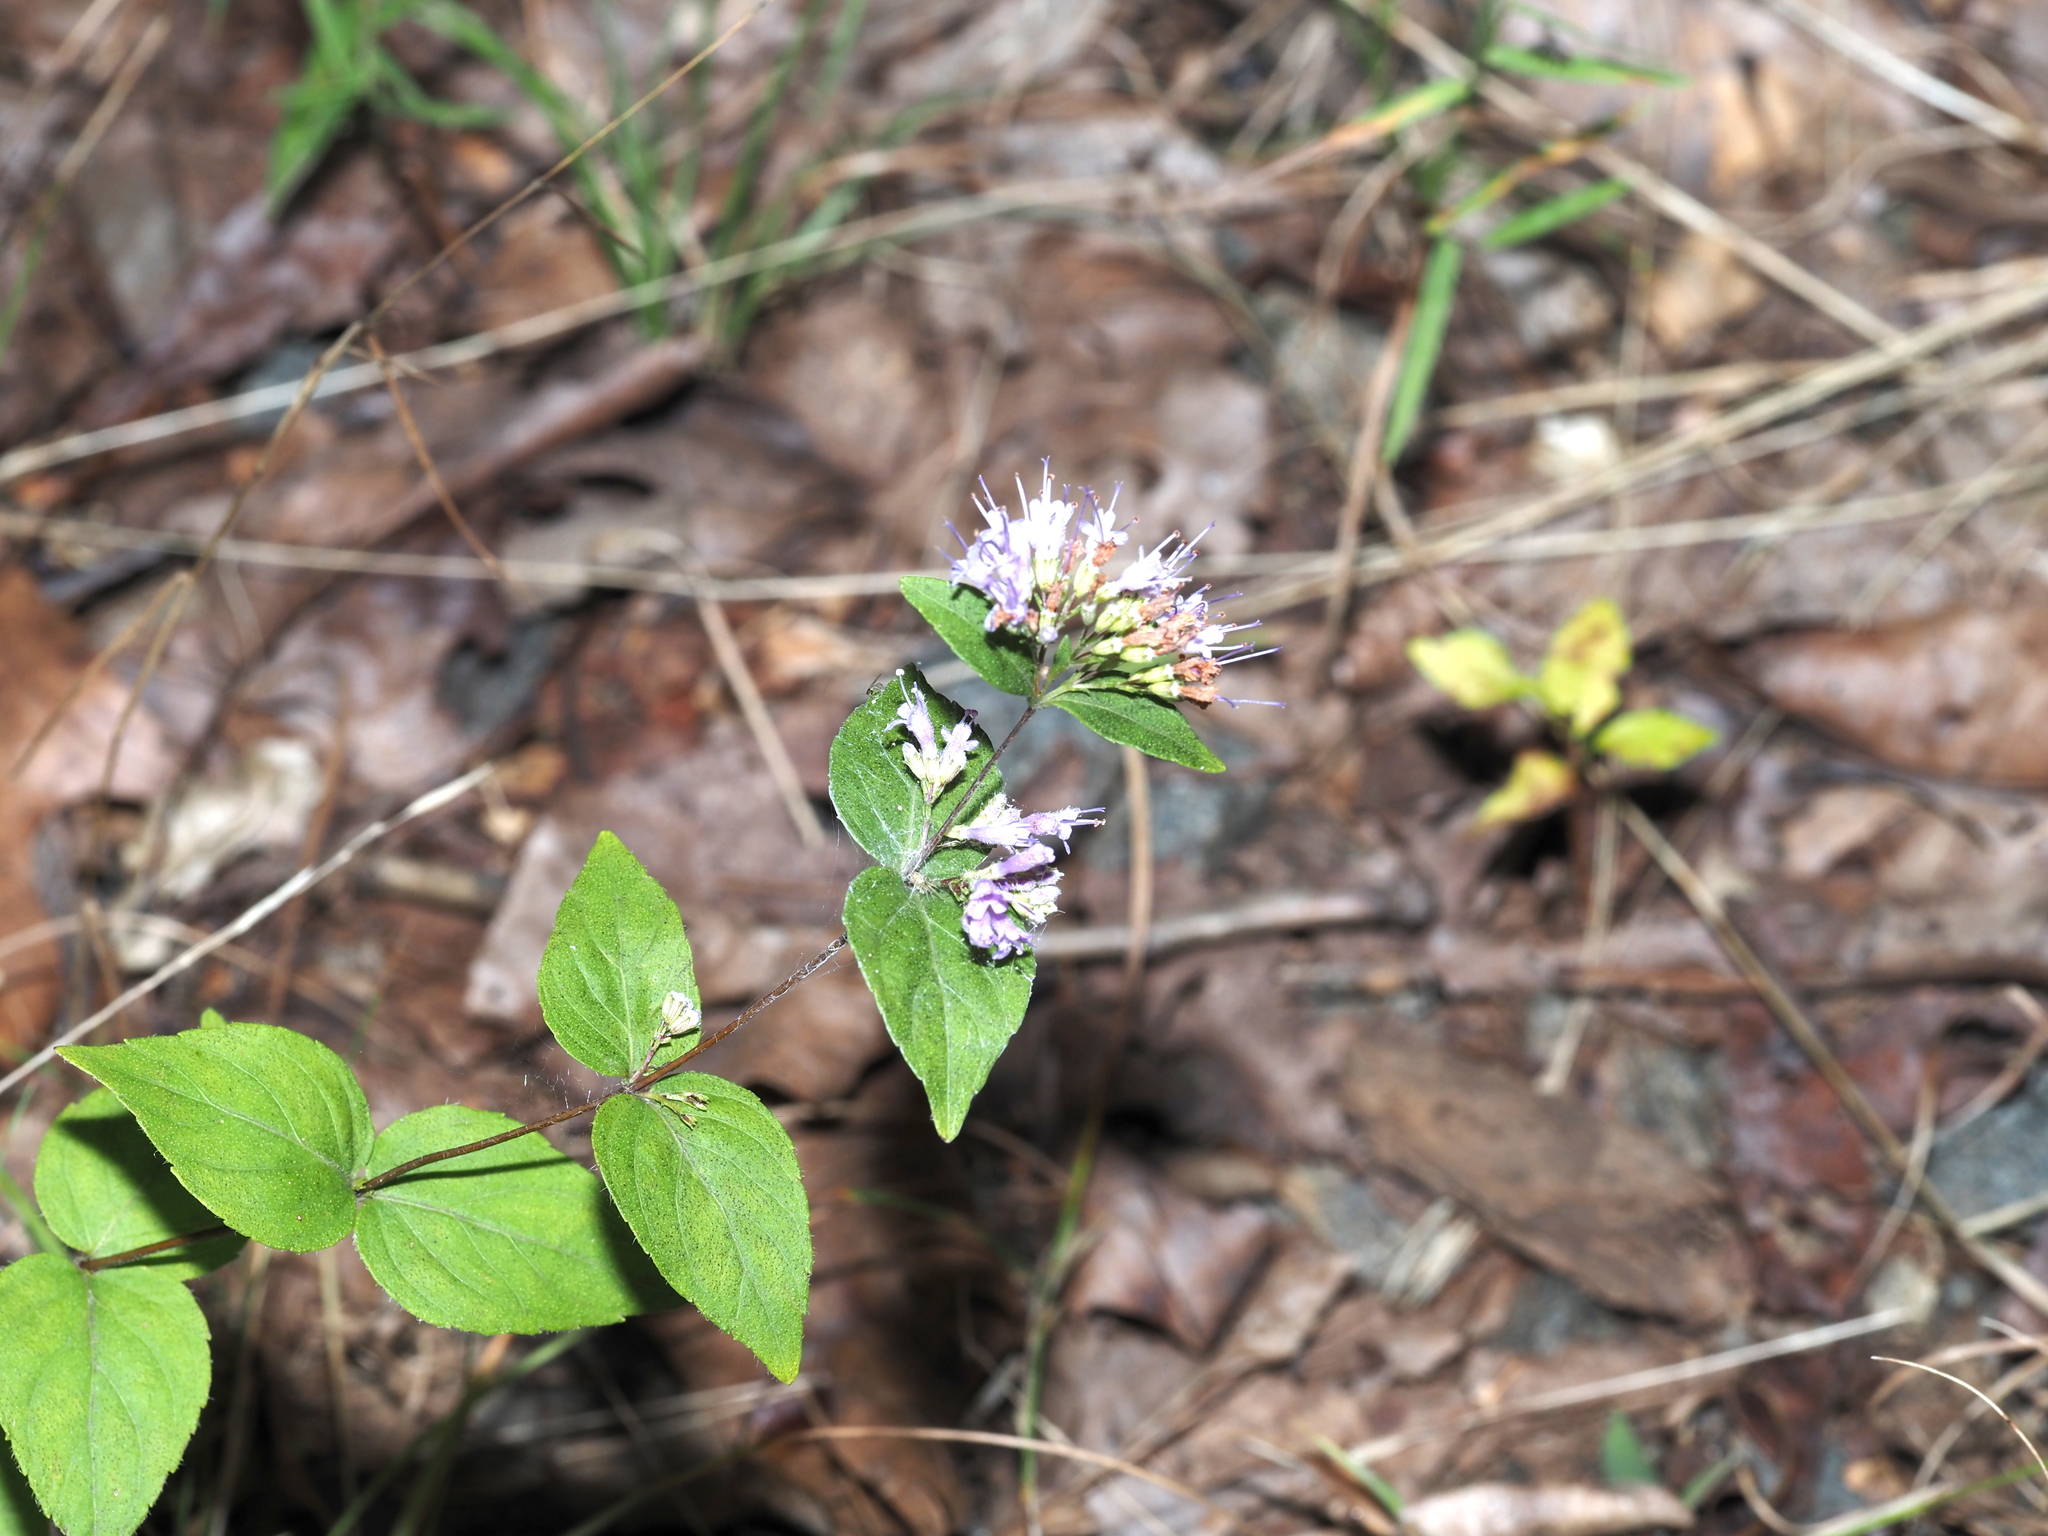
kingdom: Plantae
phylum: Tracheophyta
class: Magnoliopsida
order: Lamiales
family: Lamiaceae
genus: Cunila
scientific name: Cunila origanoides
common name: American dittany
